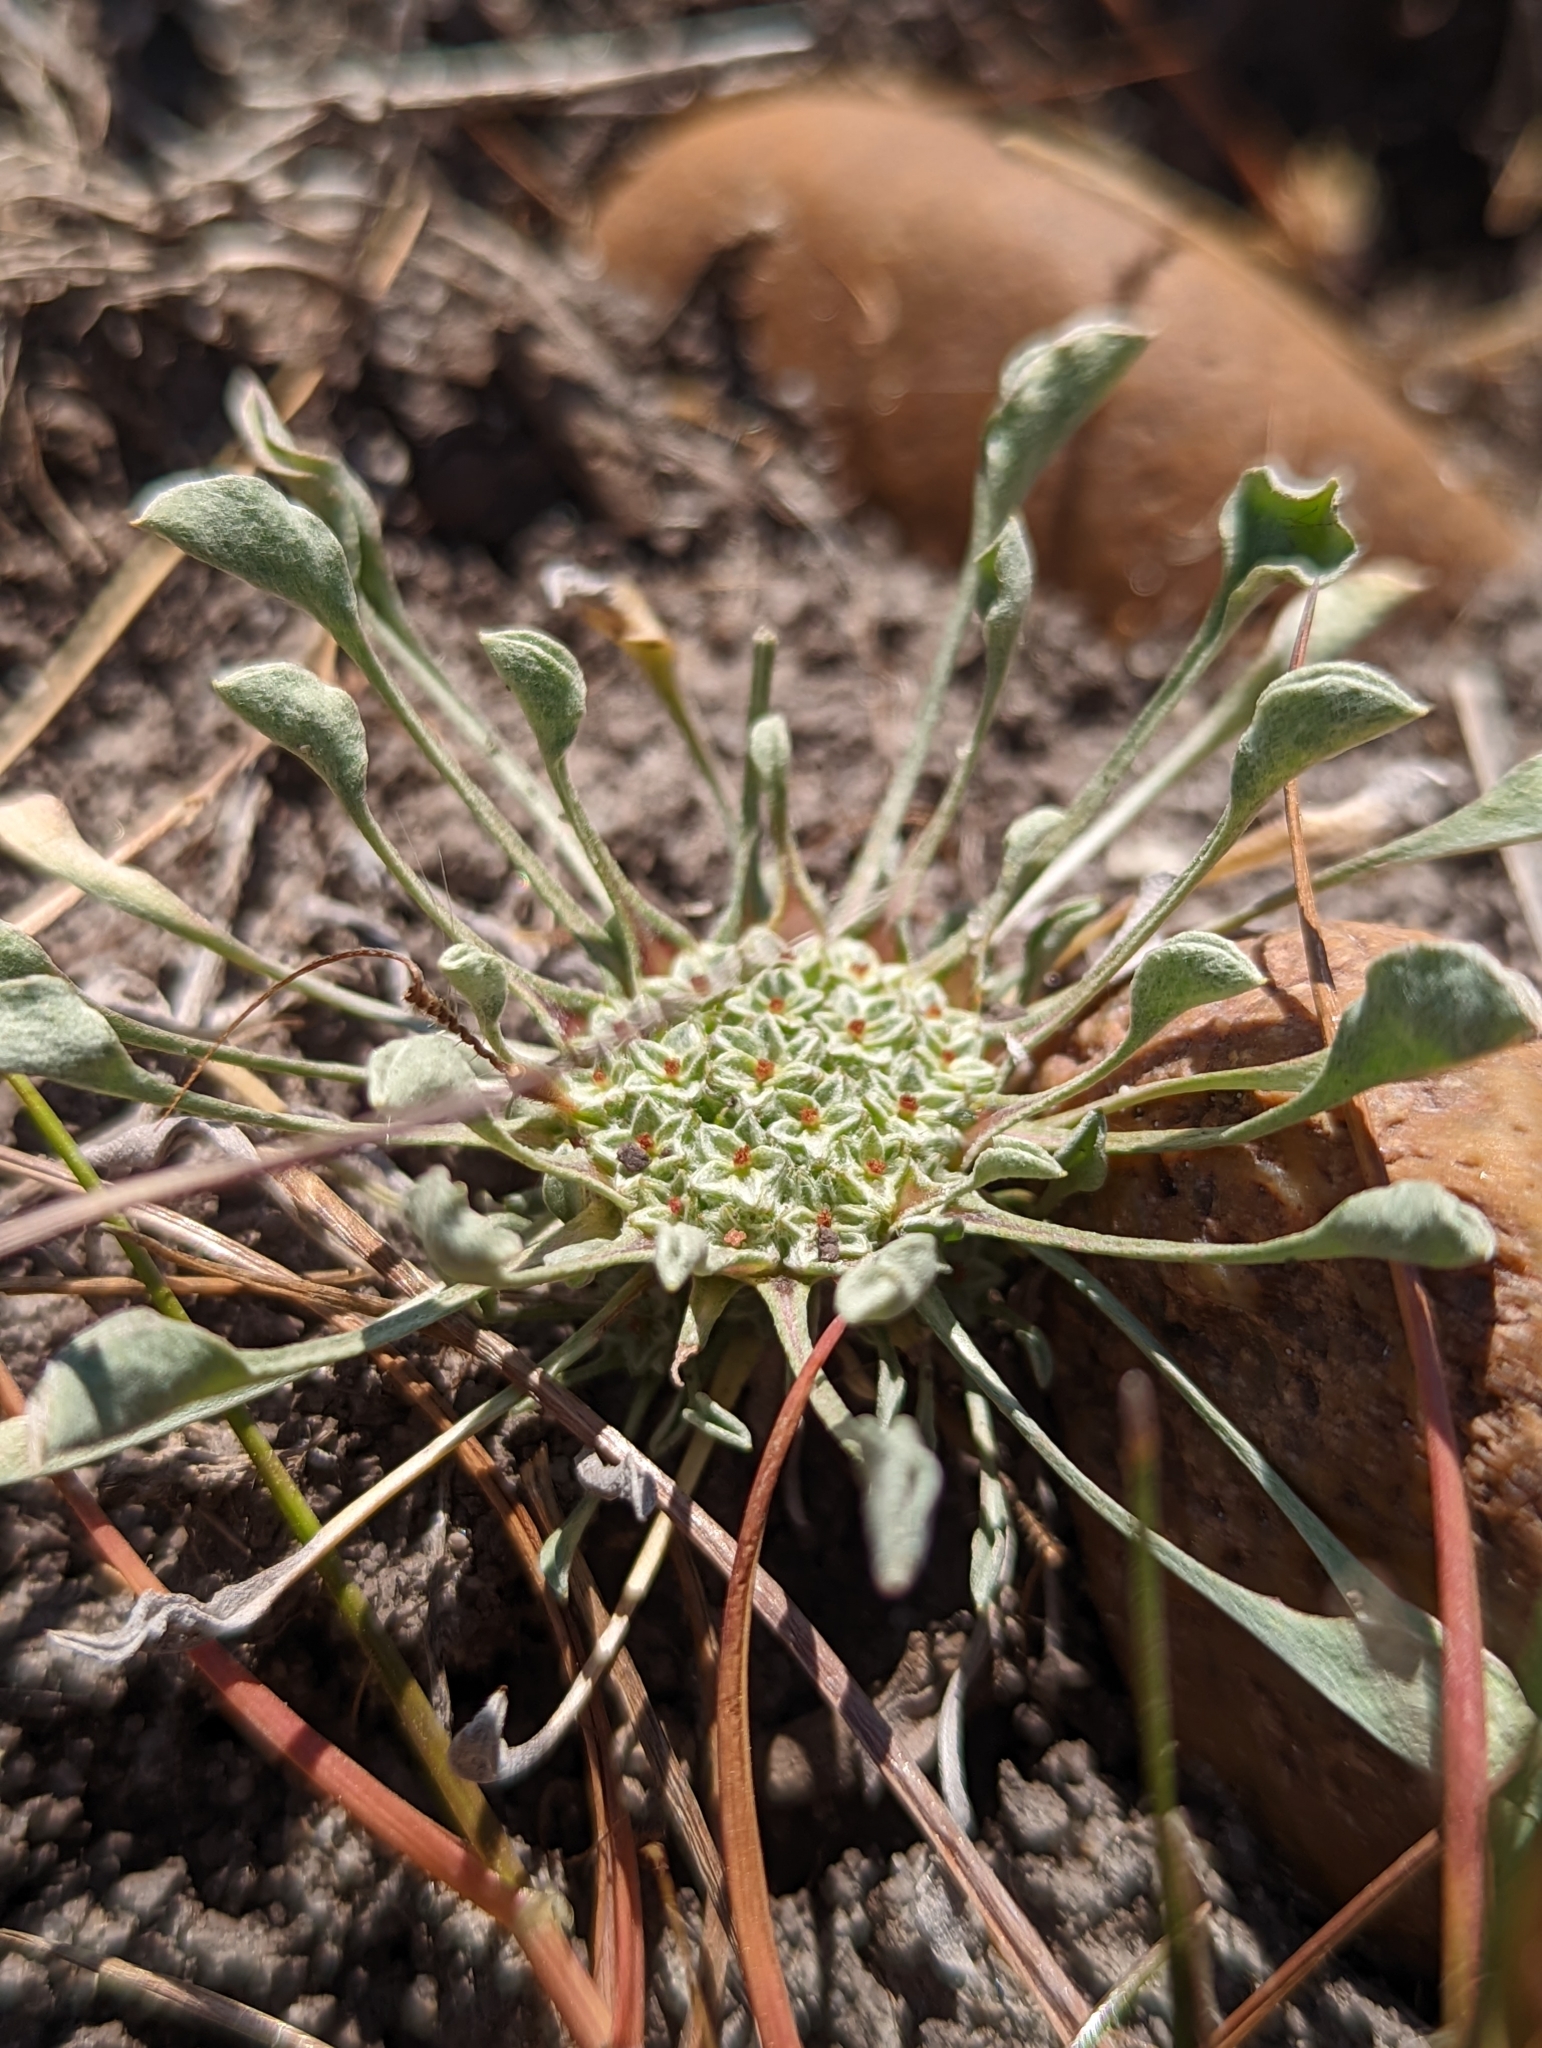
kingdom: Plantae
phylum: Tracheophyta
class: Magnoliopsida
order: Asterales
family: Asteraceae
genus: Hesperevax
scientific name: Hesperevax caulescens
